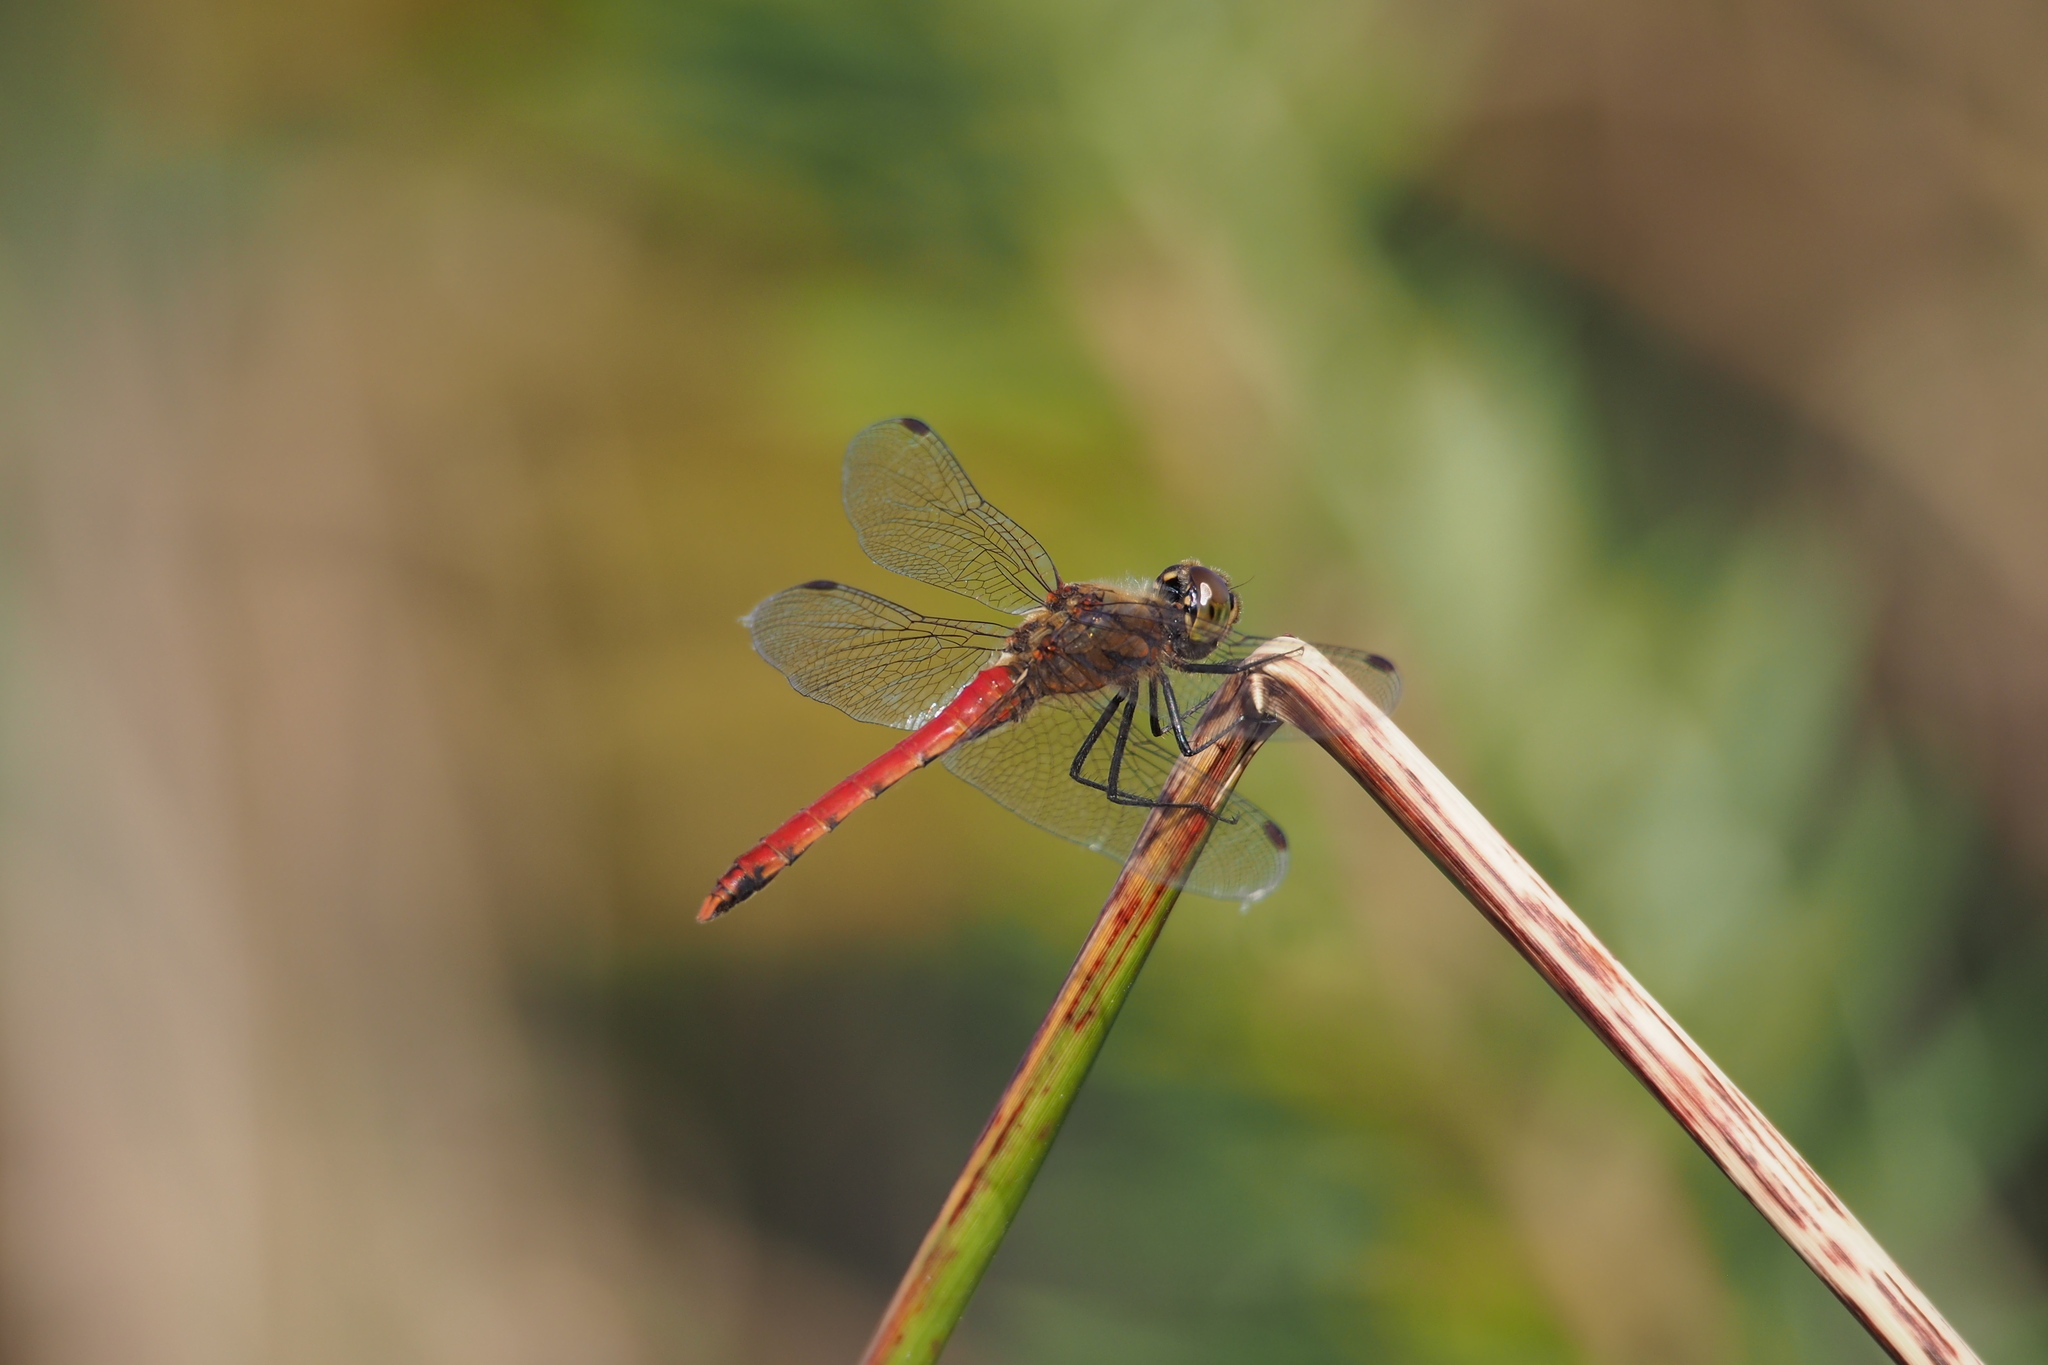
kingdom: Animalia
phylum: Arthropoda
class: Insecta
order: Odonata
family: Libellulidae
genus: Sympetrum
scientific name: Sympetrum frequens
